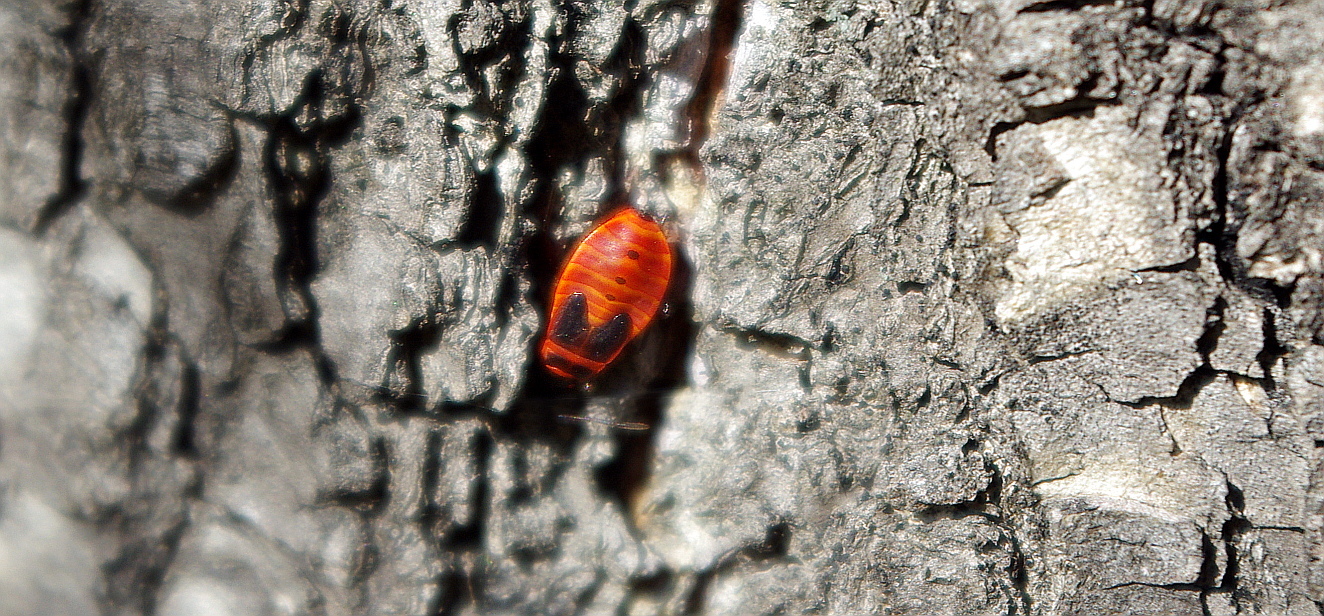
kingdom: Animalia
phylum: Arthropoda
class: Insecta
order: Hemiptera
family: Pyrrhocoridae
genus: Pyrrhocoris
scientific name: Pyrrhocoris apterus
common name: Firebug
